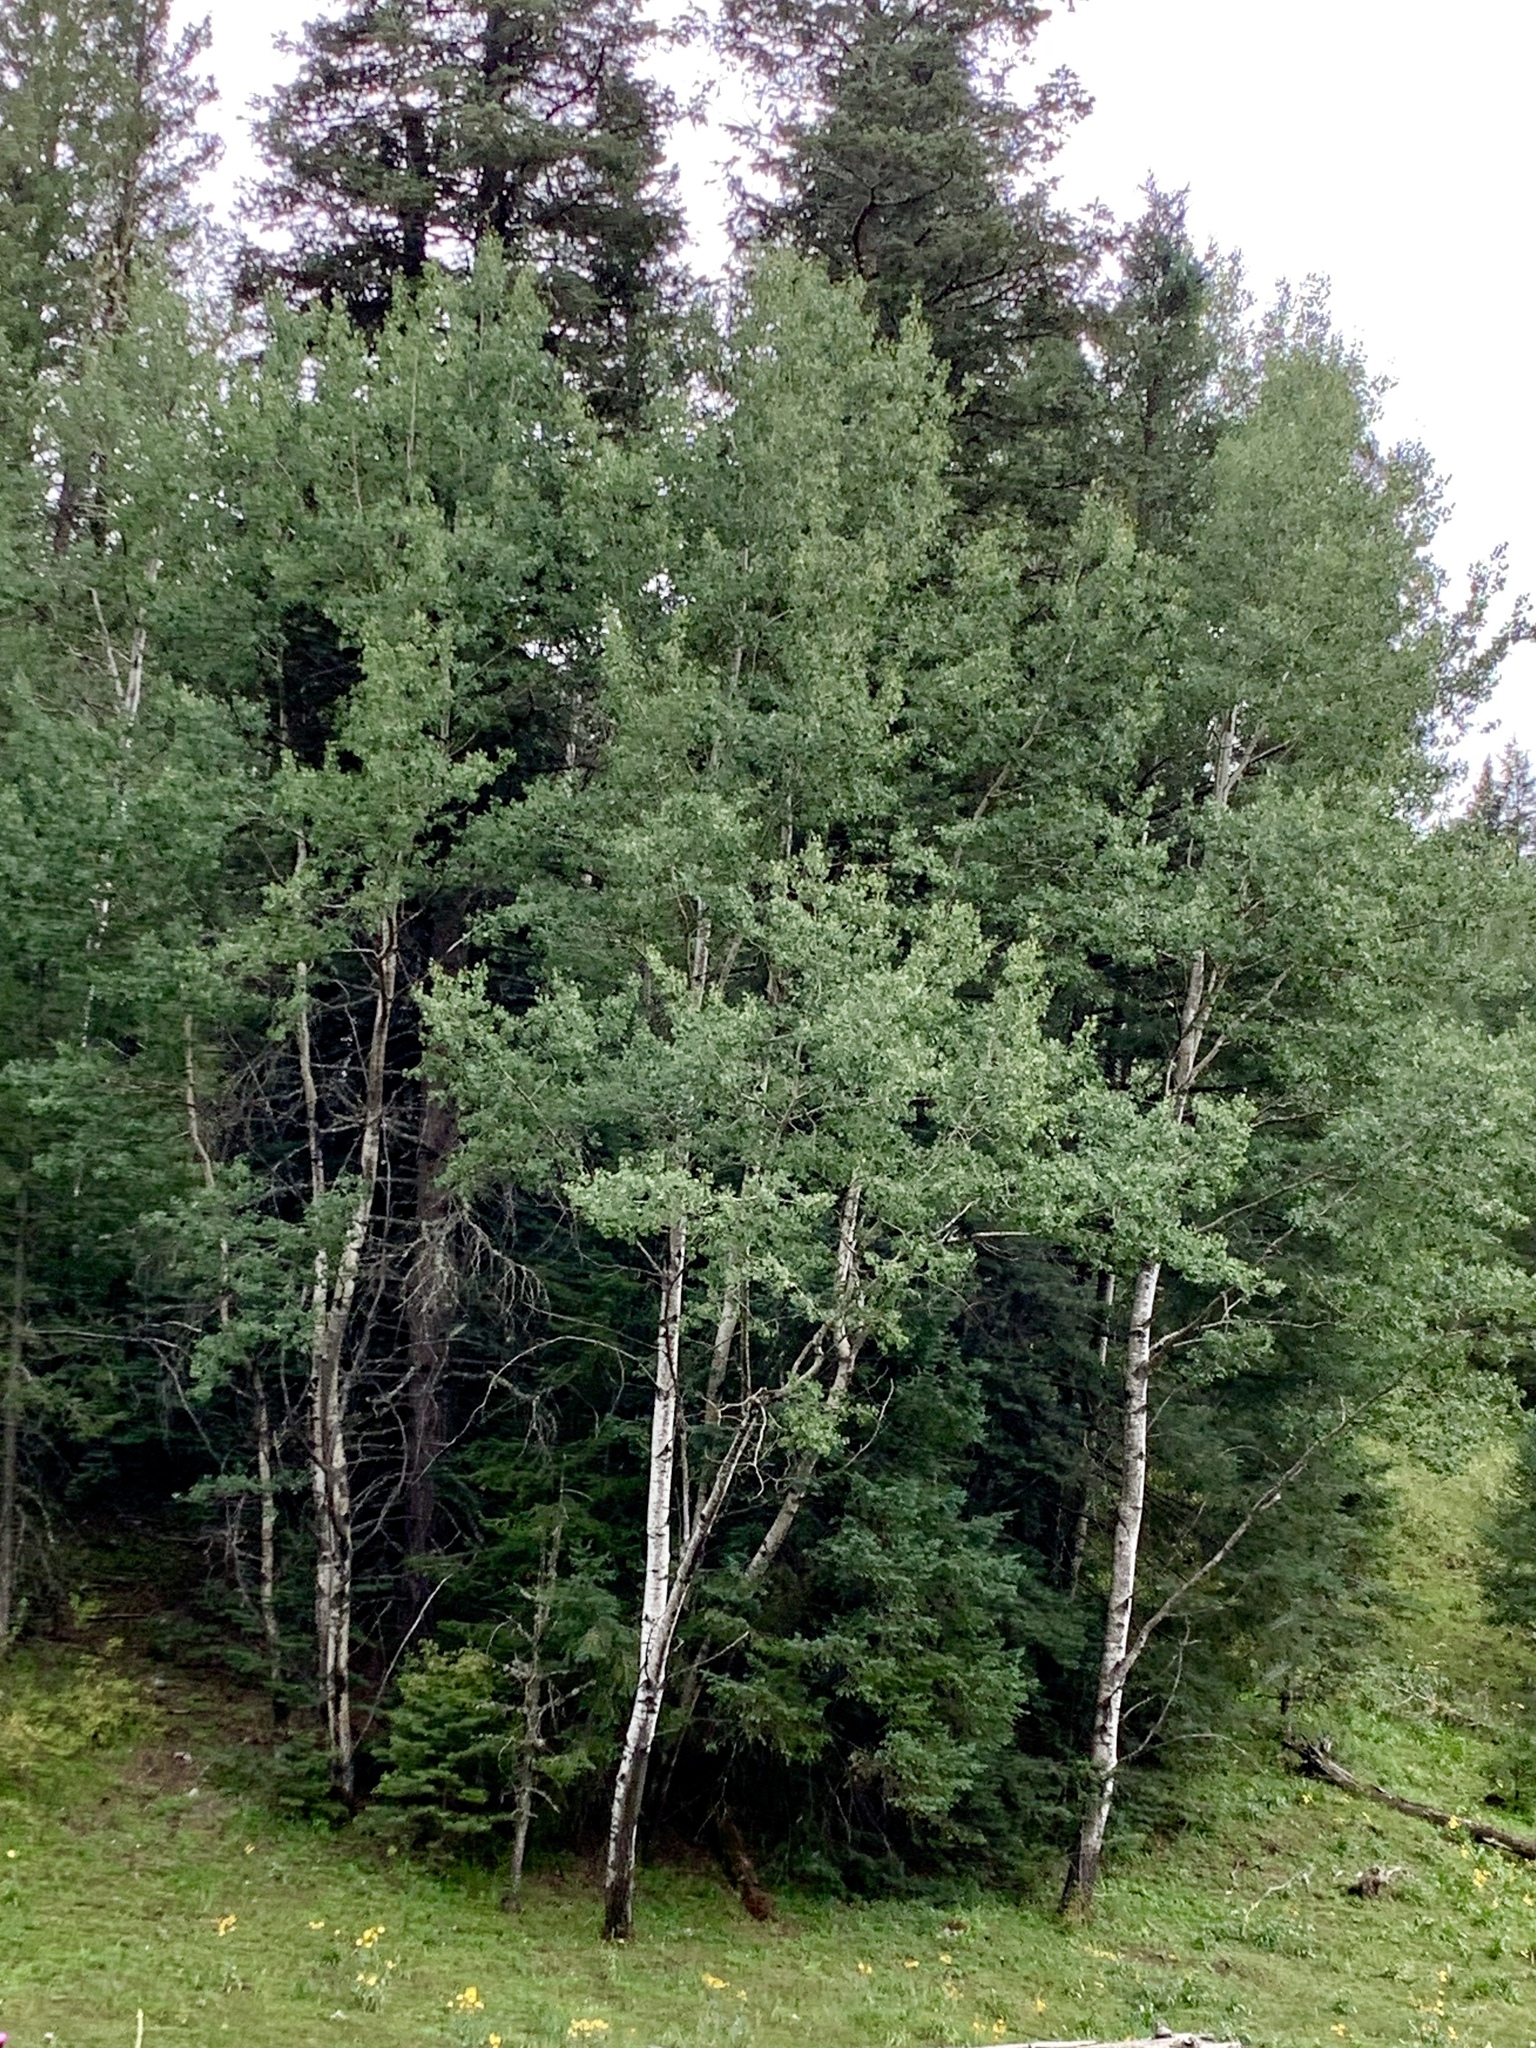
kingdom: Plantae
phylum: Tracheophyta
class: Magnoliopsida
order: Malpighiales
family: Salicaceae
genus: Populus
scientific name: Populus tremuloides
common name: Quaking aspen
